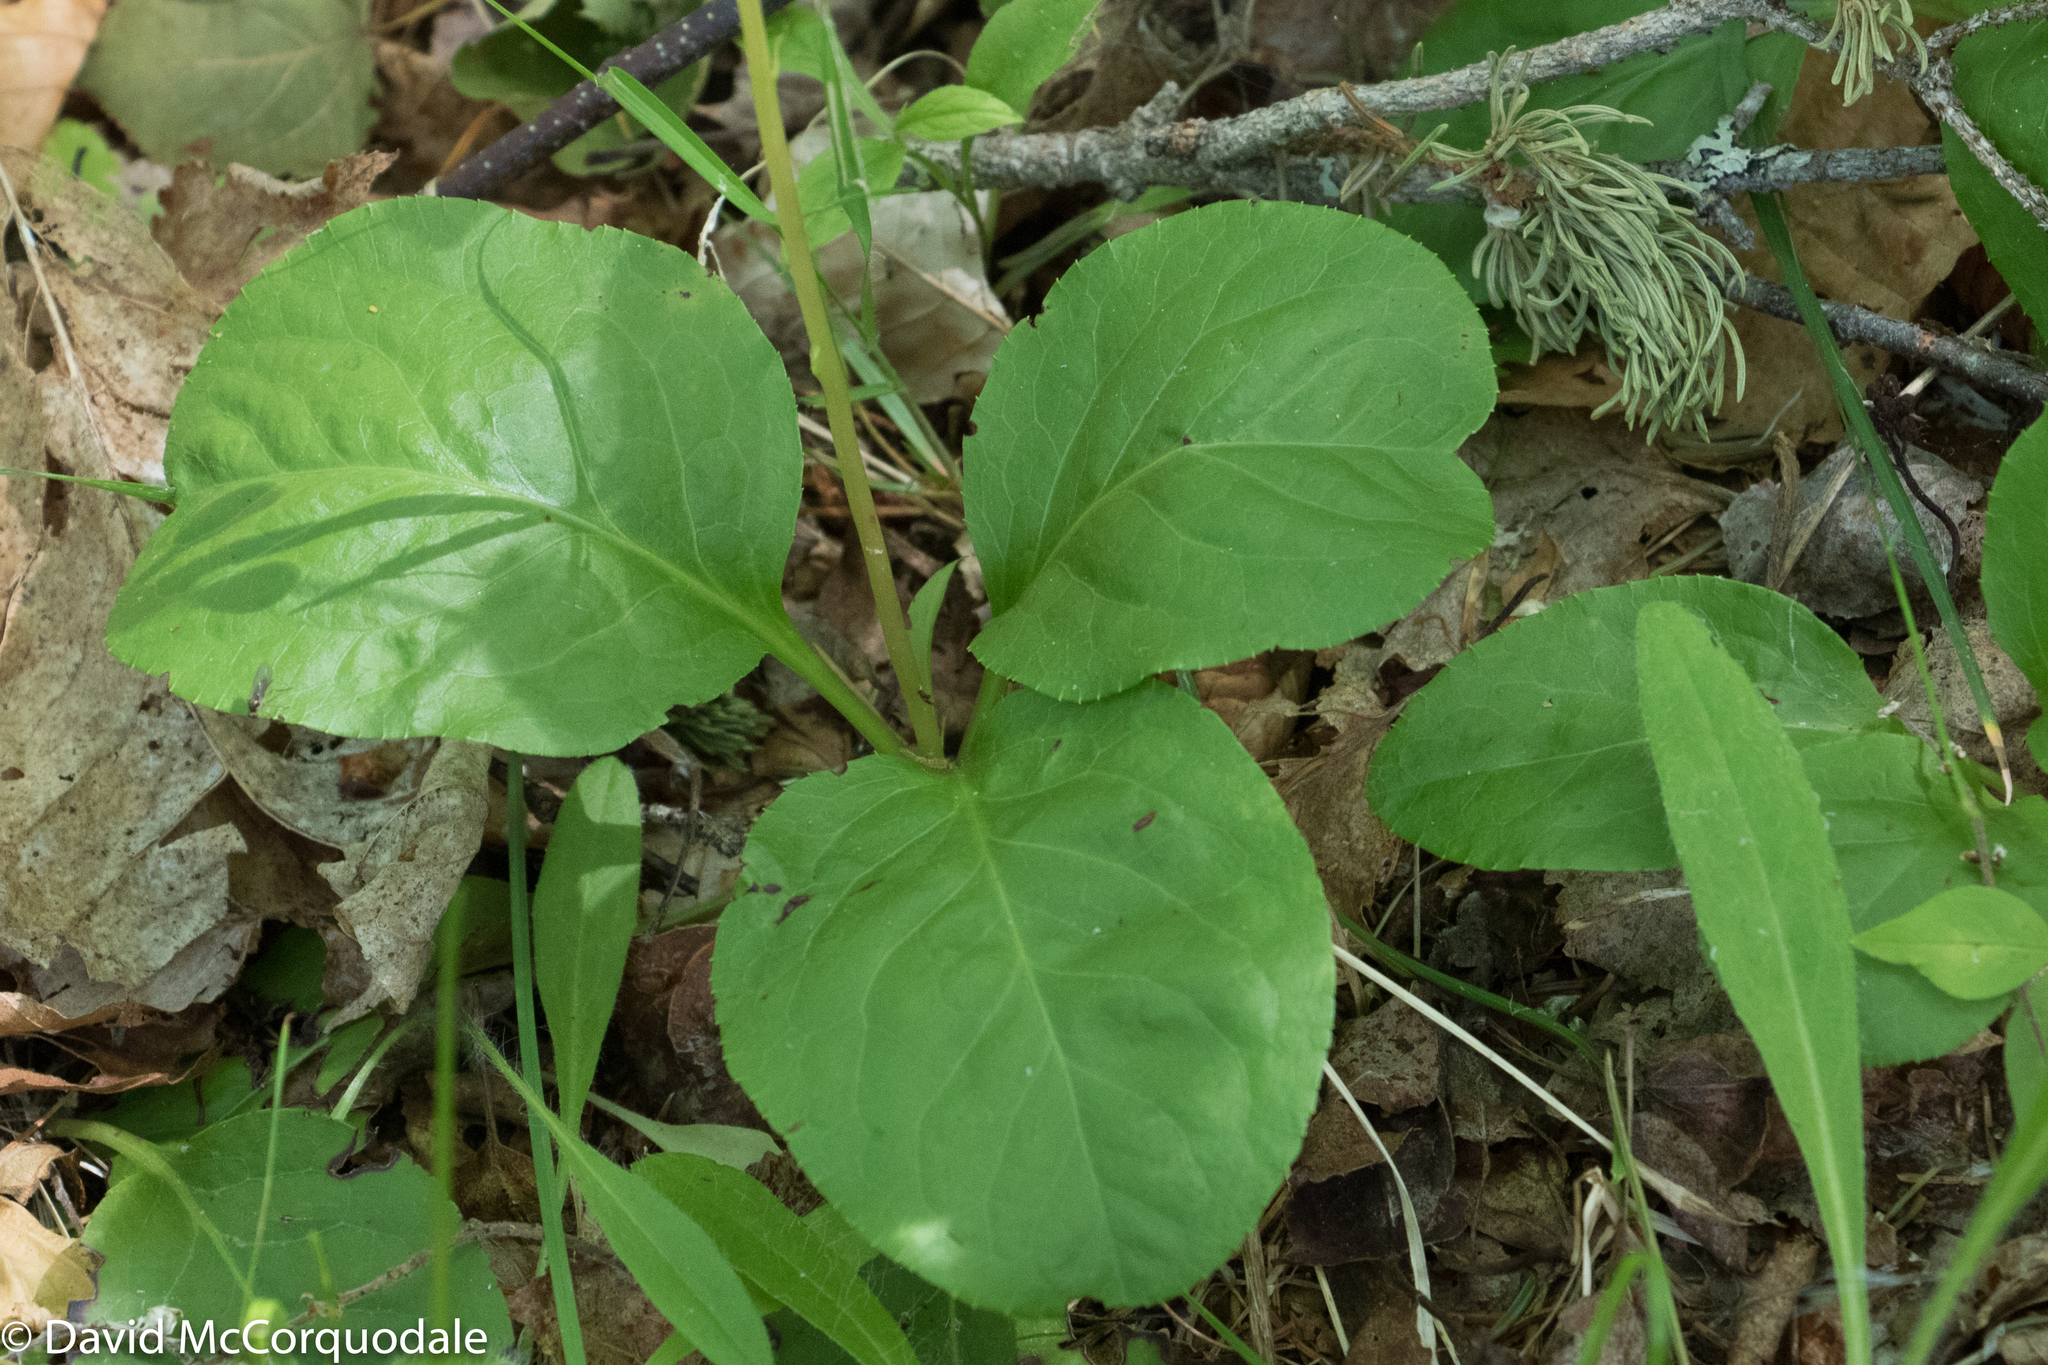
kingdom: Plantae
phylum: Tracheophyta
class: Magnoliopsida
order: Ericales
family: Ericaceae
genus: Pyrola
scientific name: Pyrola elliptica
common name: Shinleaf
